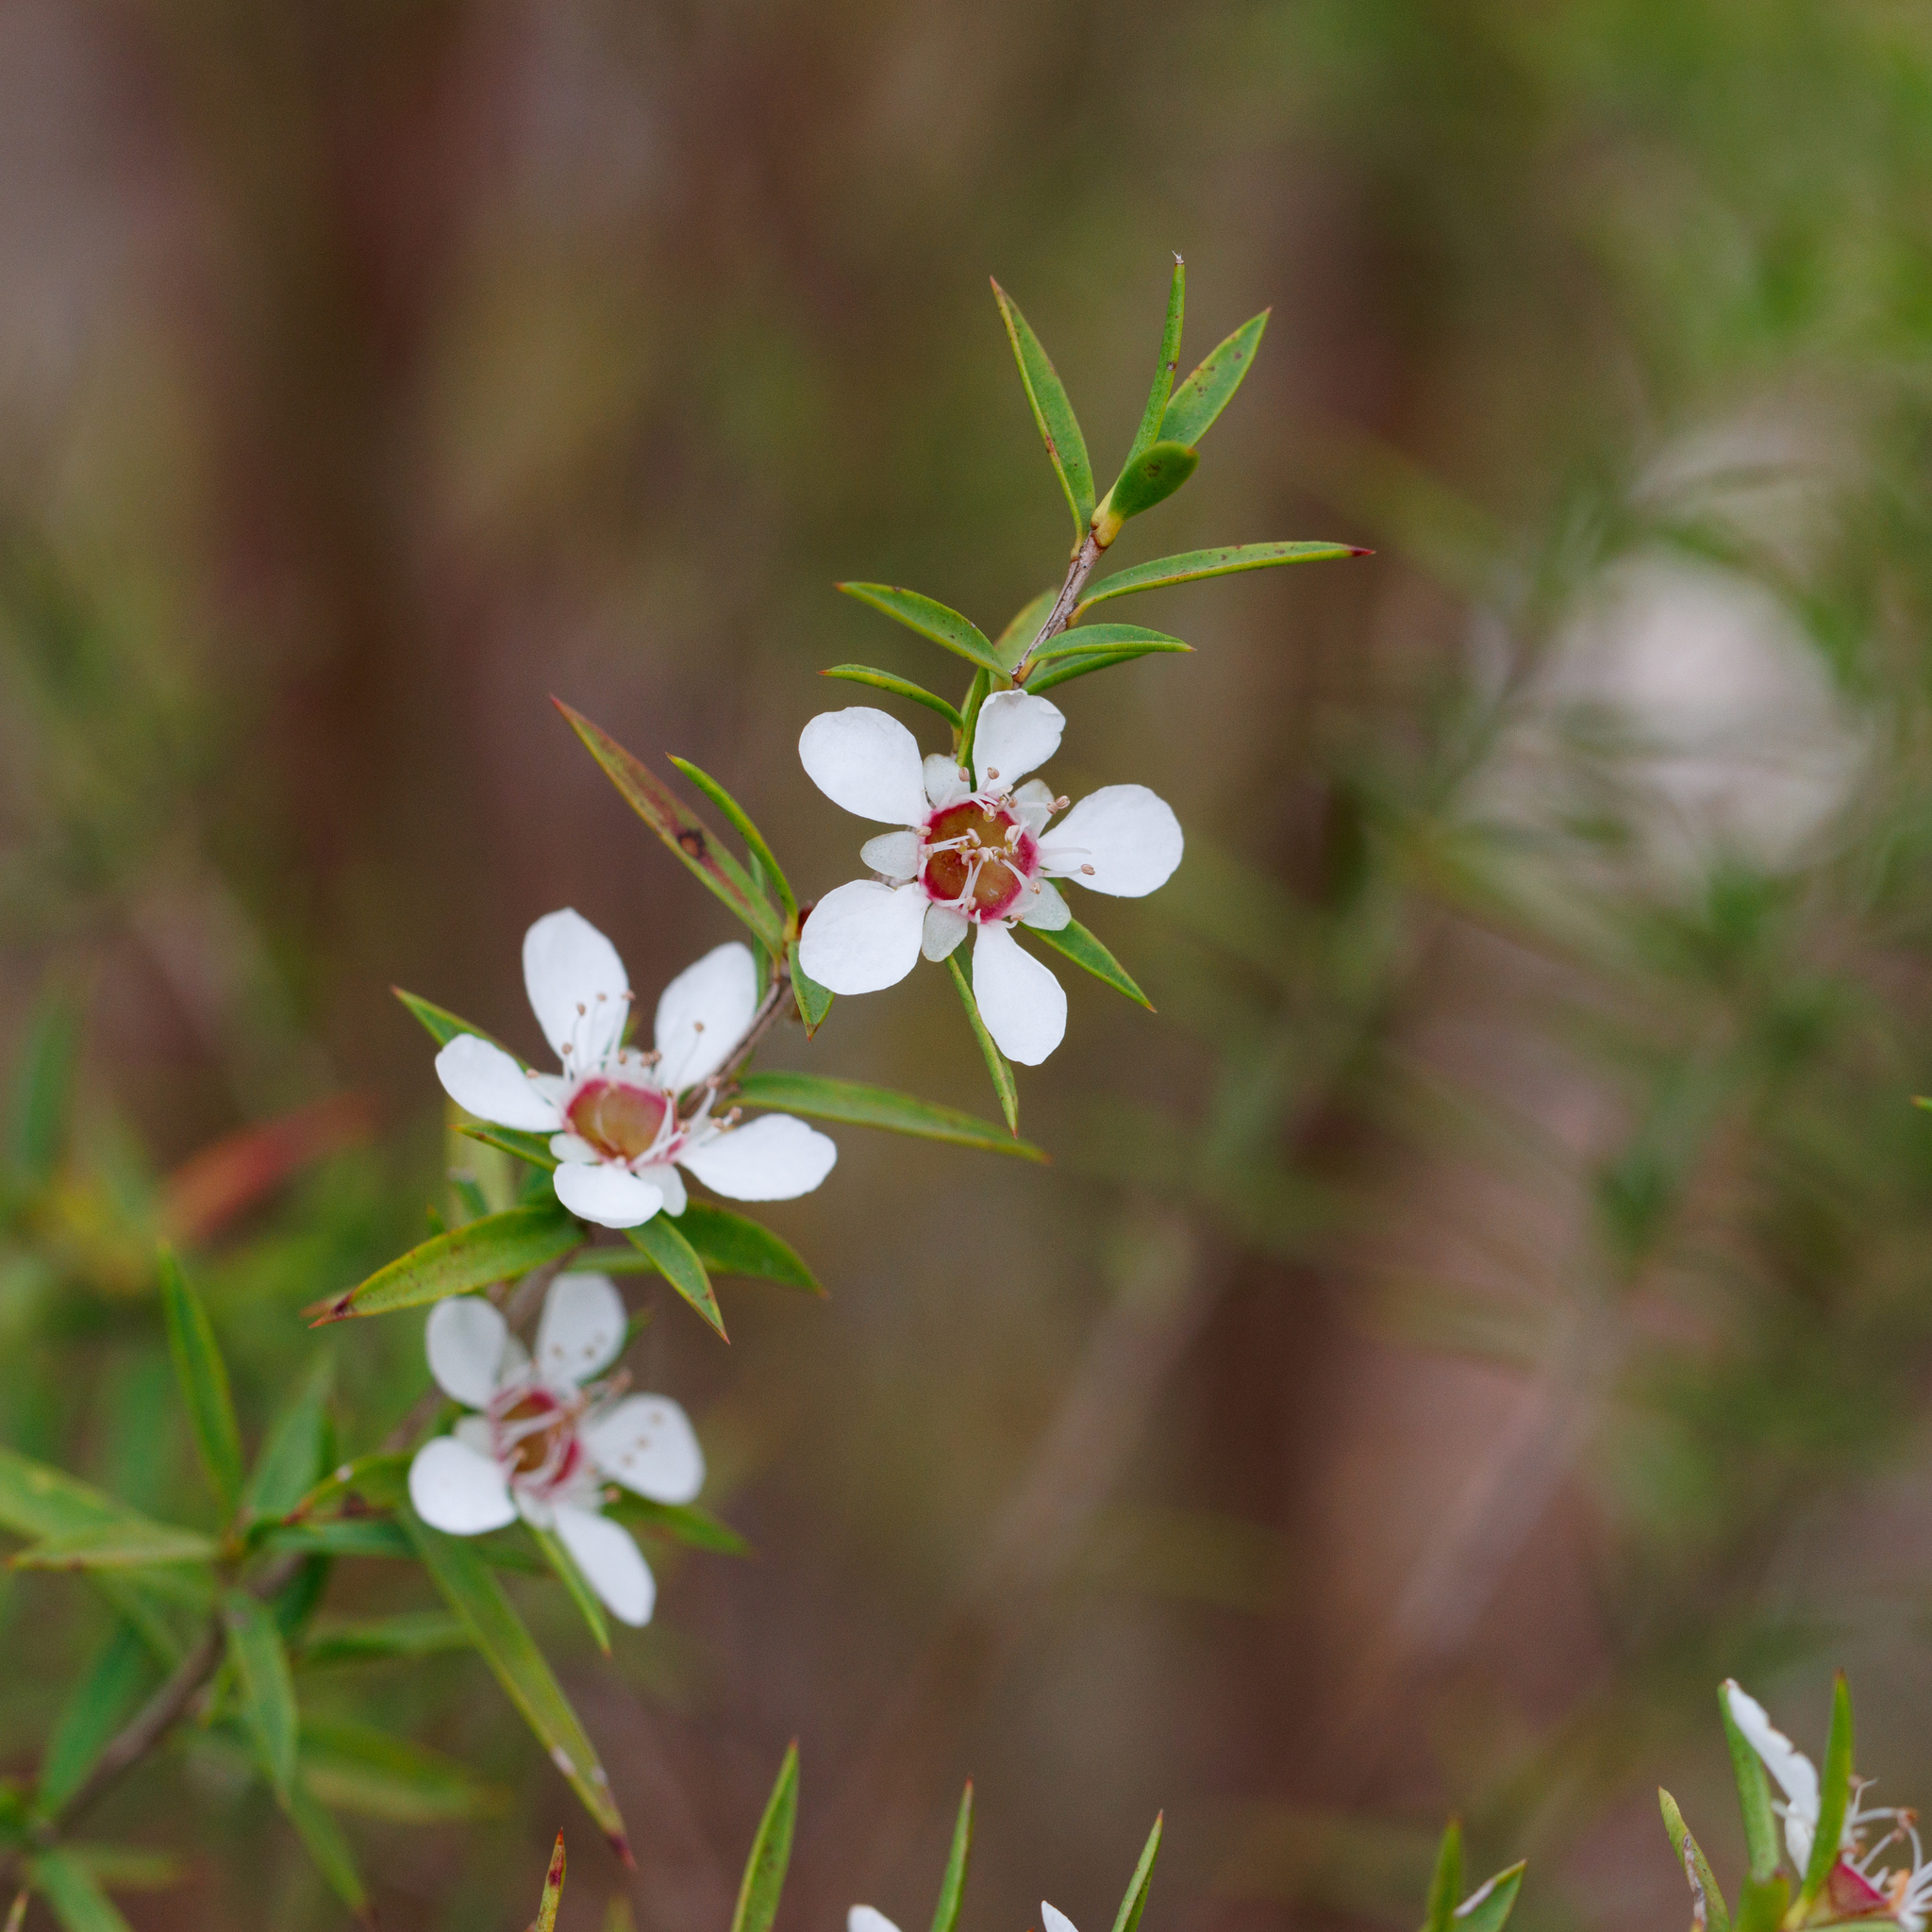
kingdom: Plantae
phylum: Tracheophyta
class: Magnoliopsida
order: Myrtales
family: Myrtaceae
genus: Leptospermum
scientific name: Leptospermum continentale
